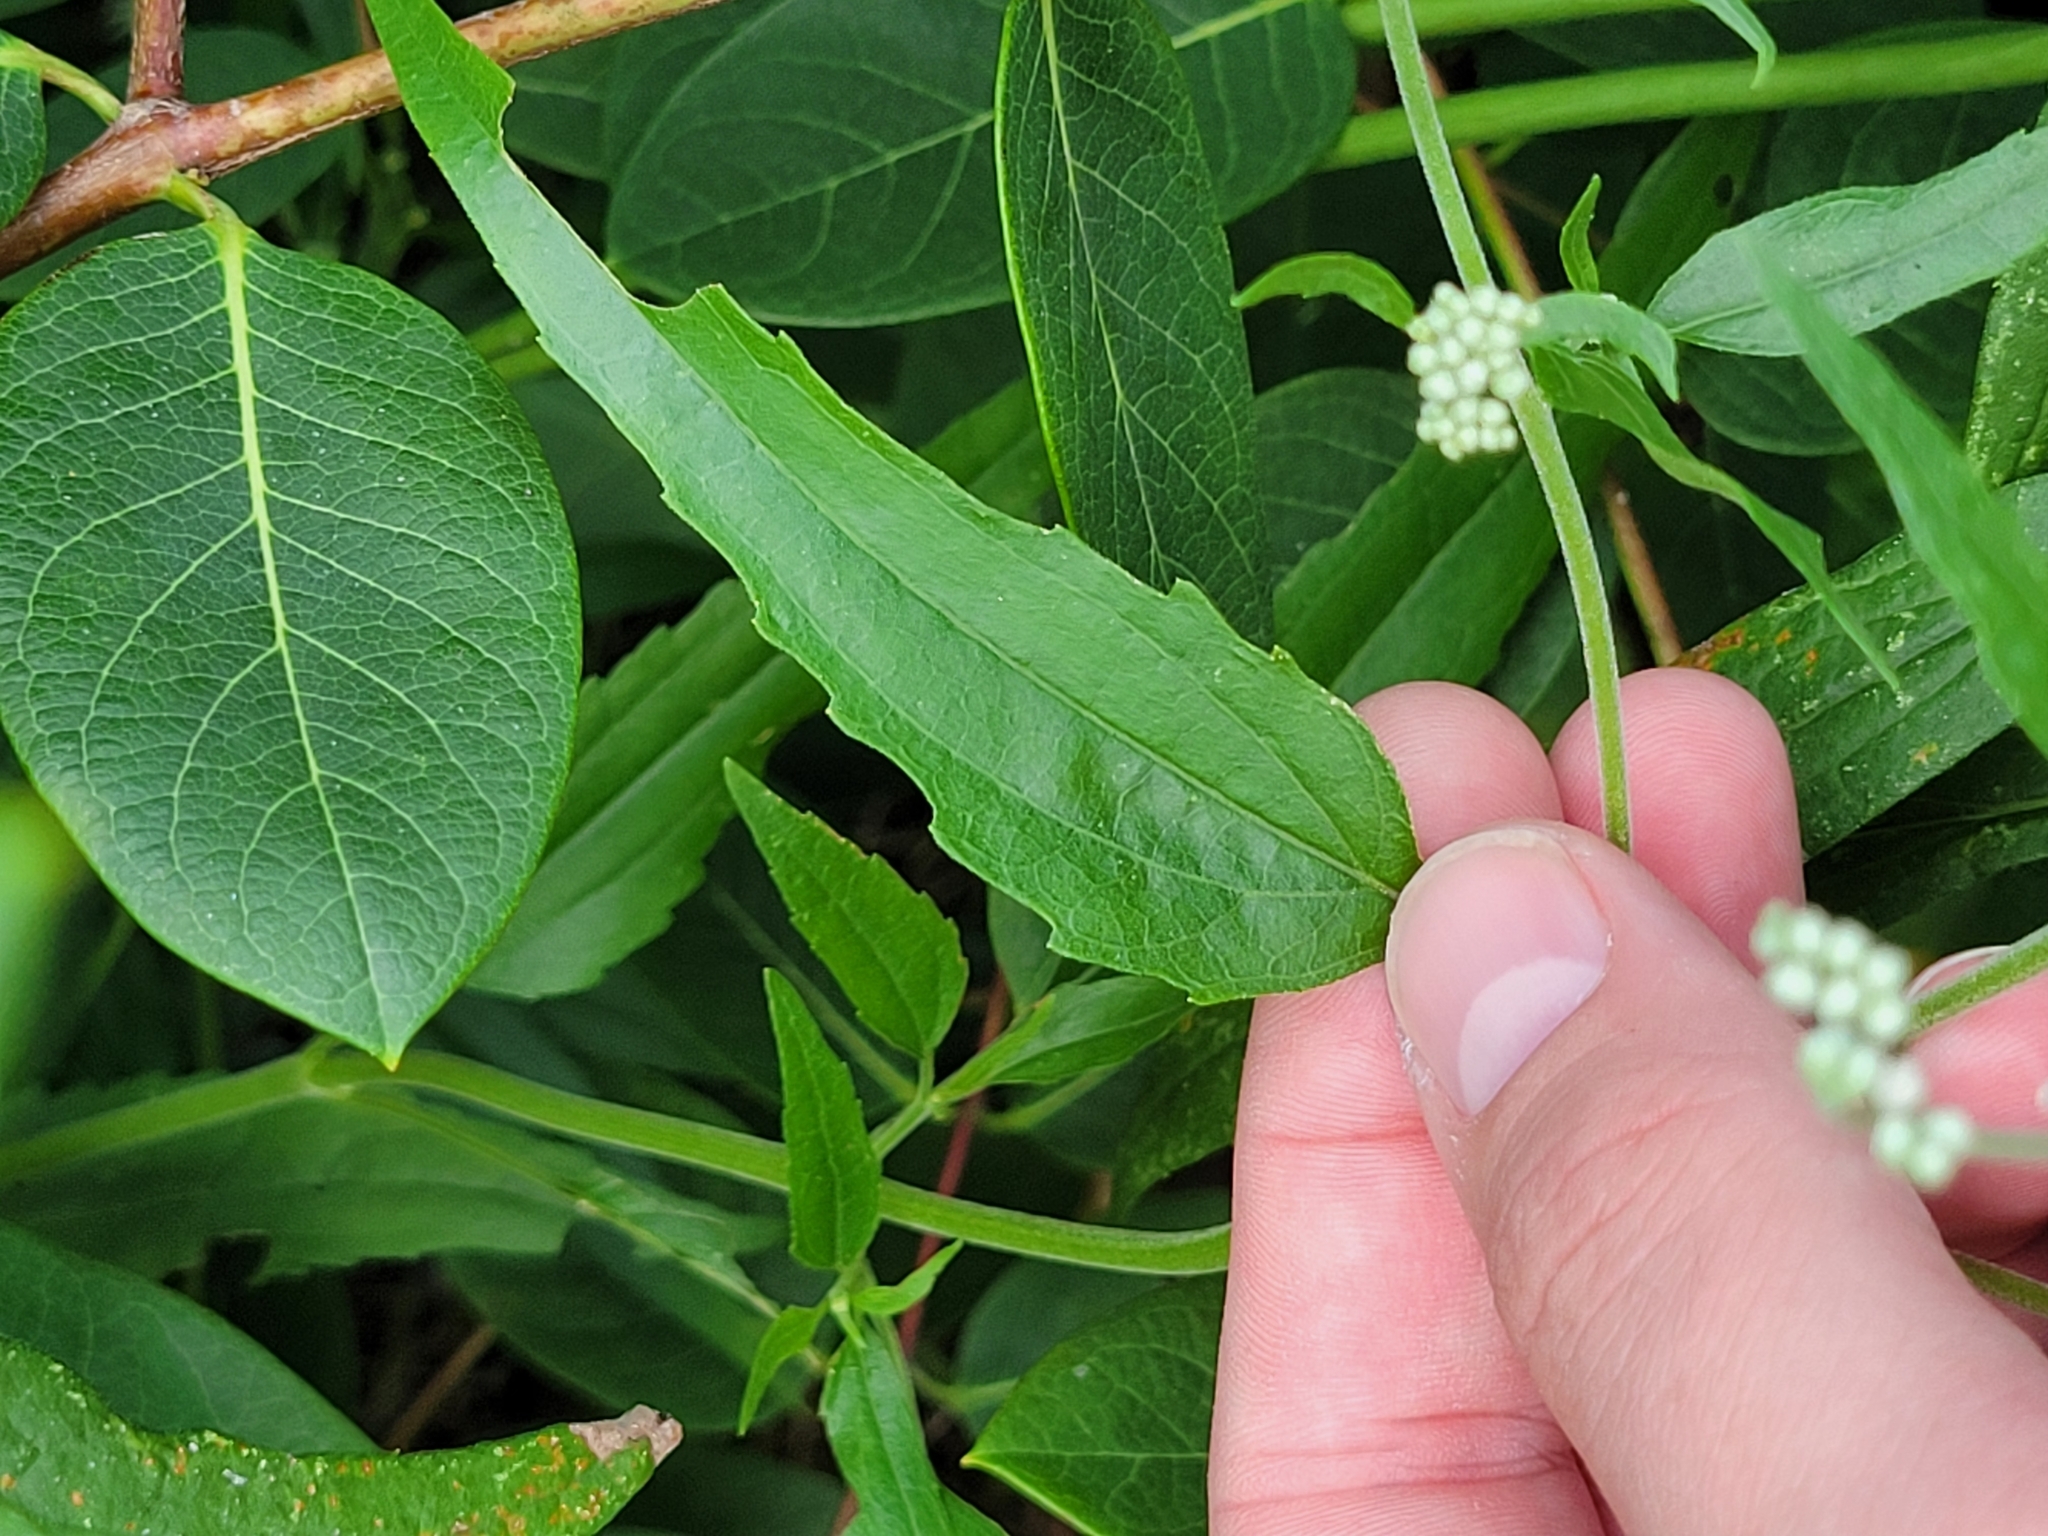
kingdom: Plantae
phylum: Tracheophyta
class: Magnoliopsida
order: Asterales
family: Asteraceae
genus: Eupatorium
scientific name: Eupatorium serotinum
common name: Late boneset
